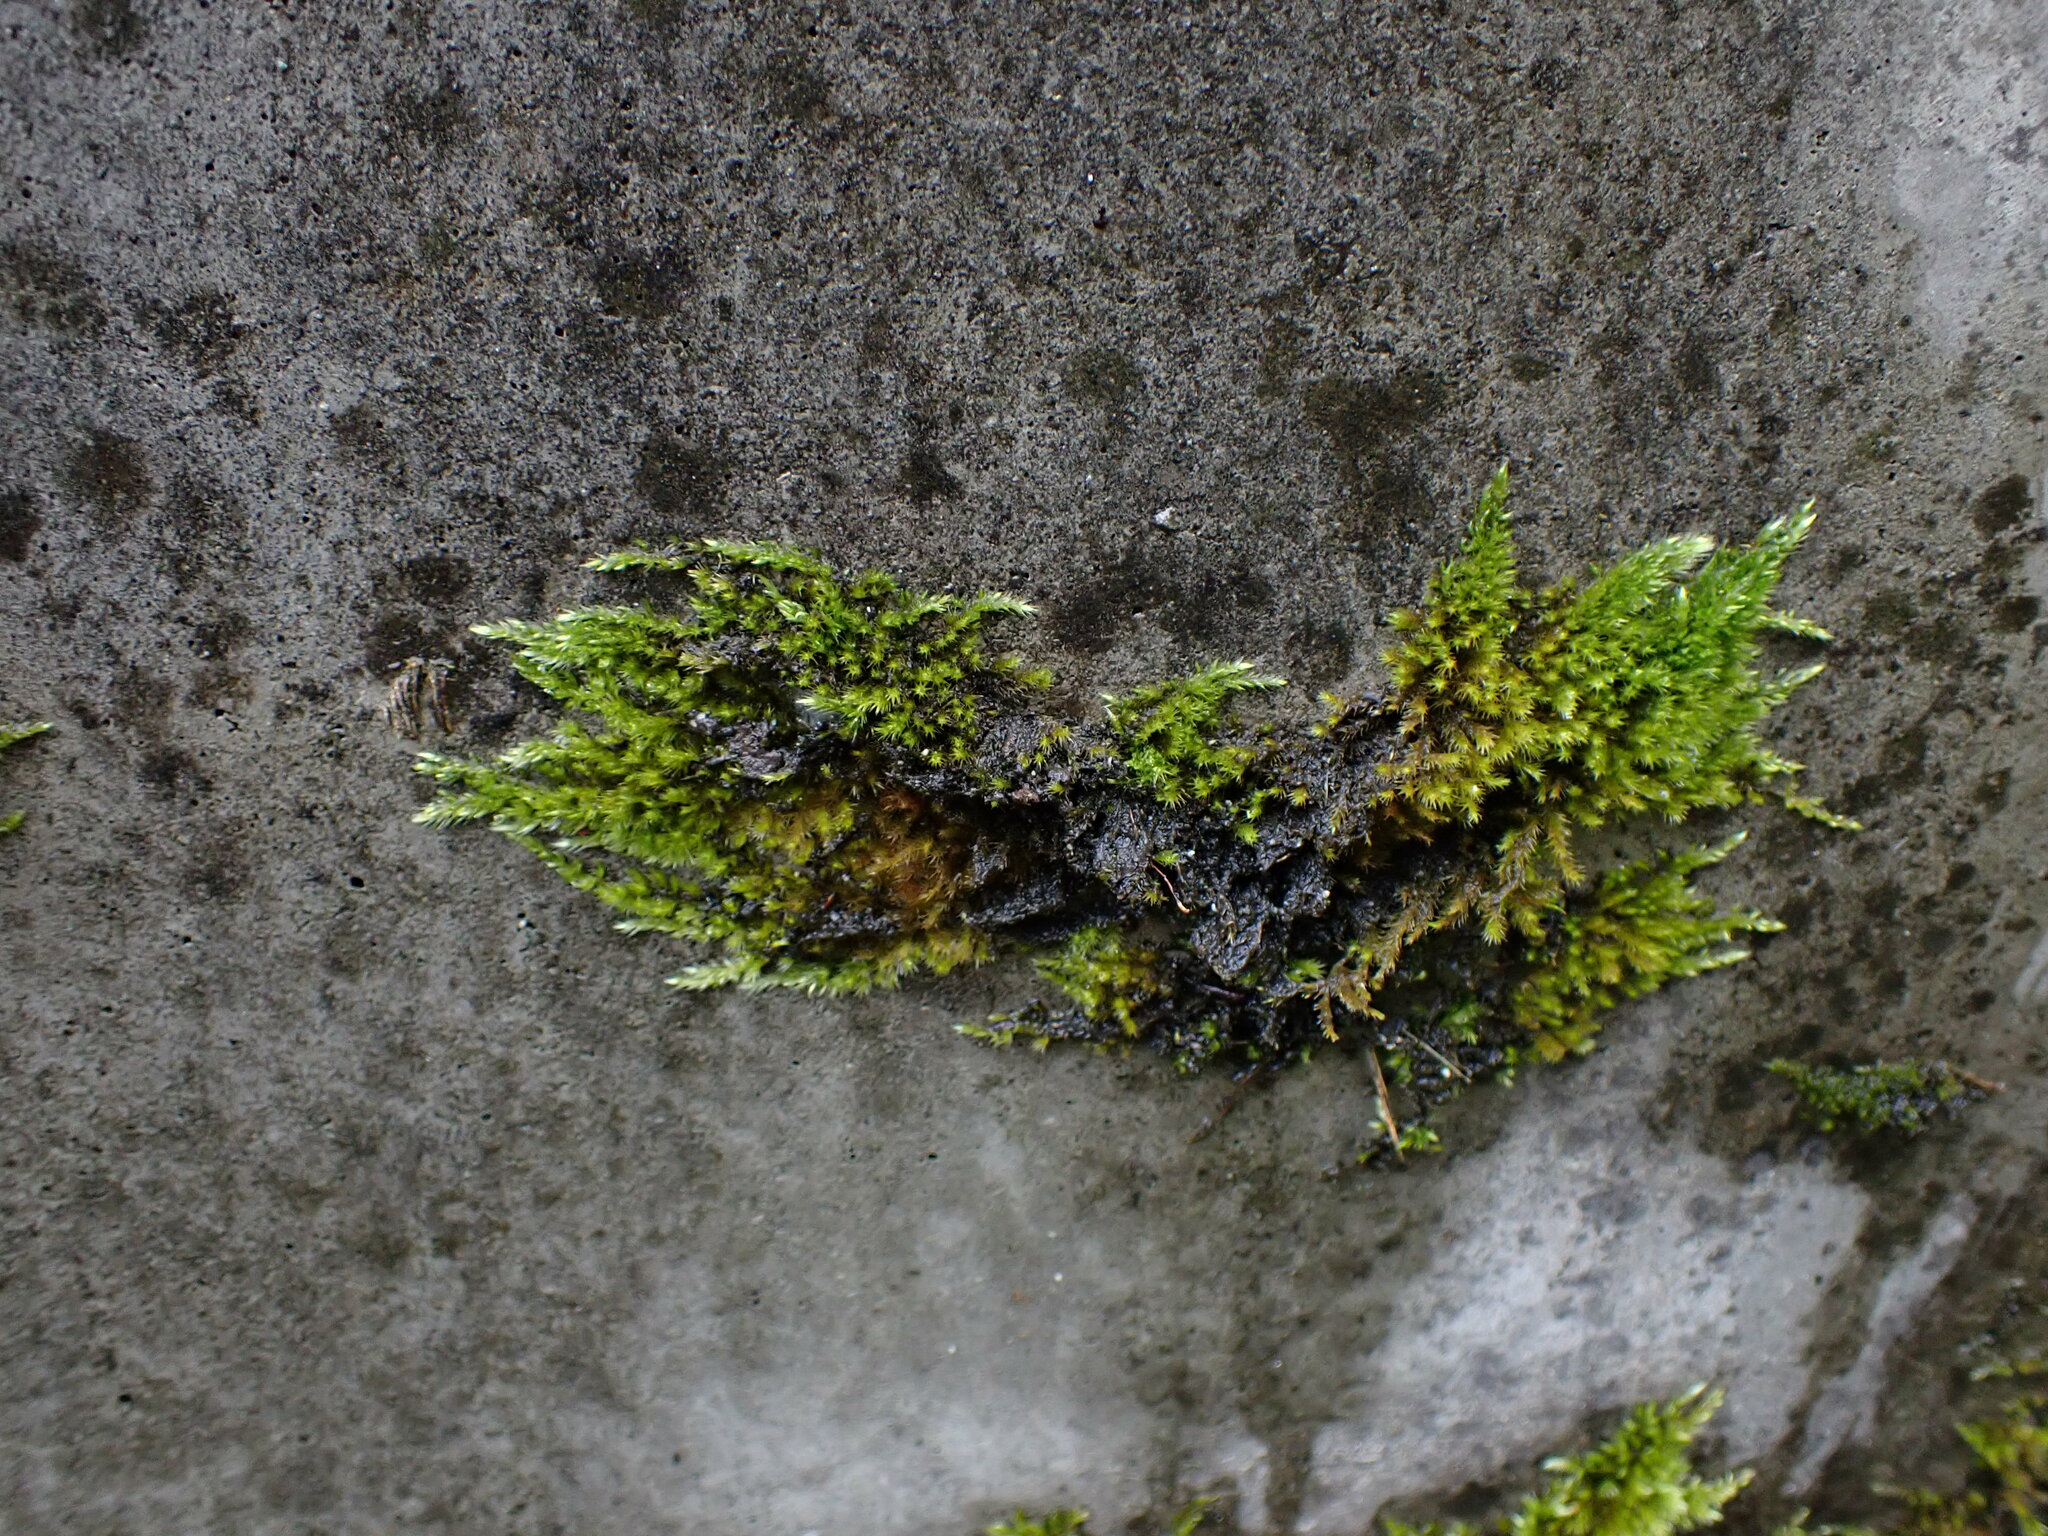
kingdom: Plantae
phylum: Bryophyta
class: Bryopsida
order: Hypnales
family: Brachytheciaceae
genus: Homalothecium
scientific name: Homalothecium nuttallii
